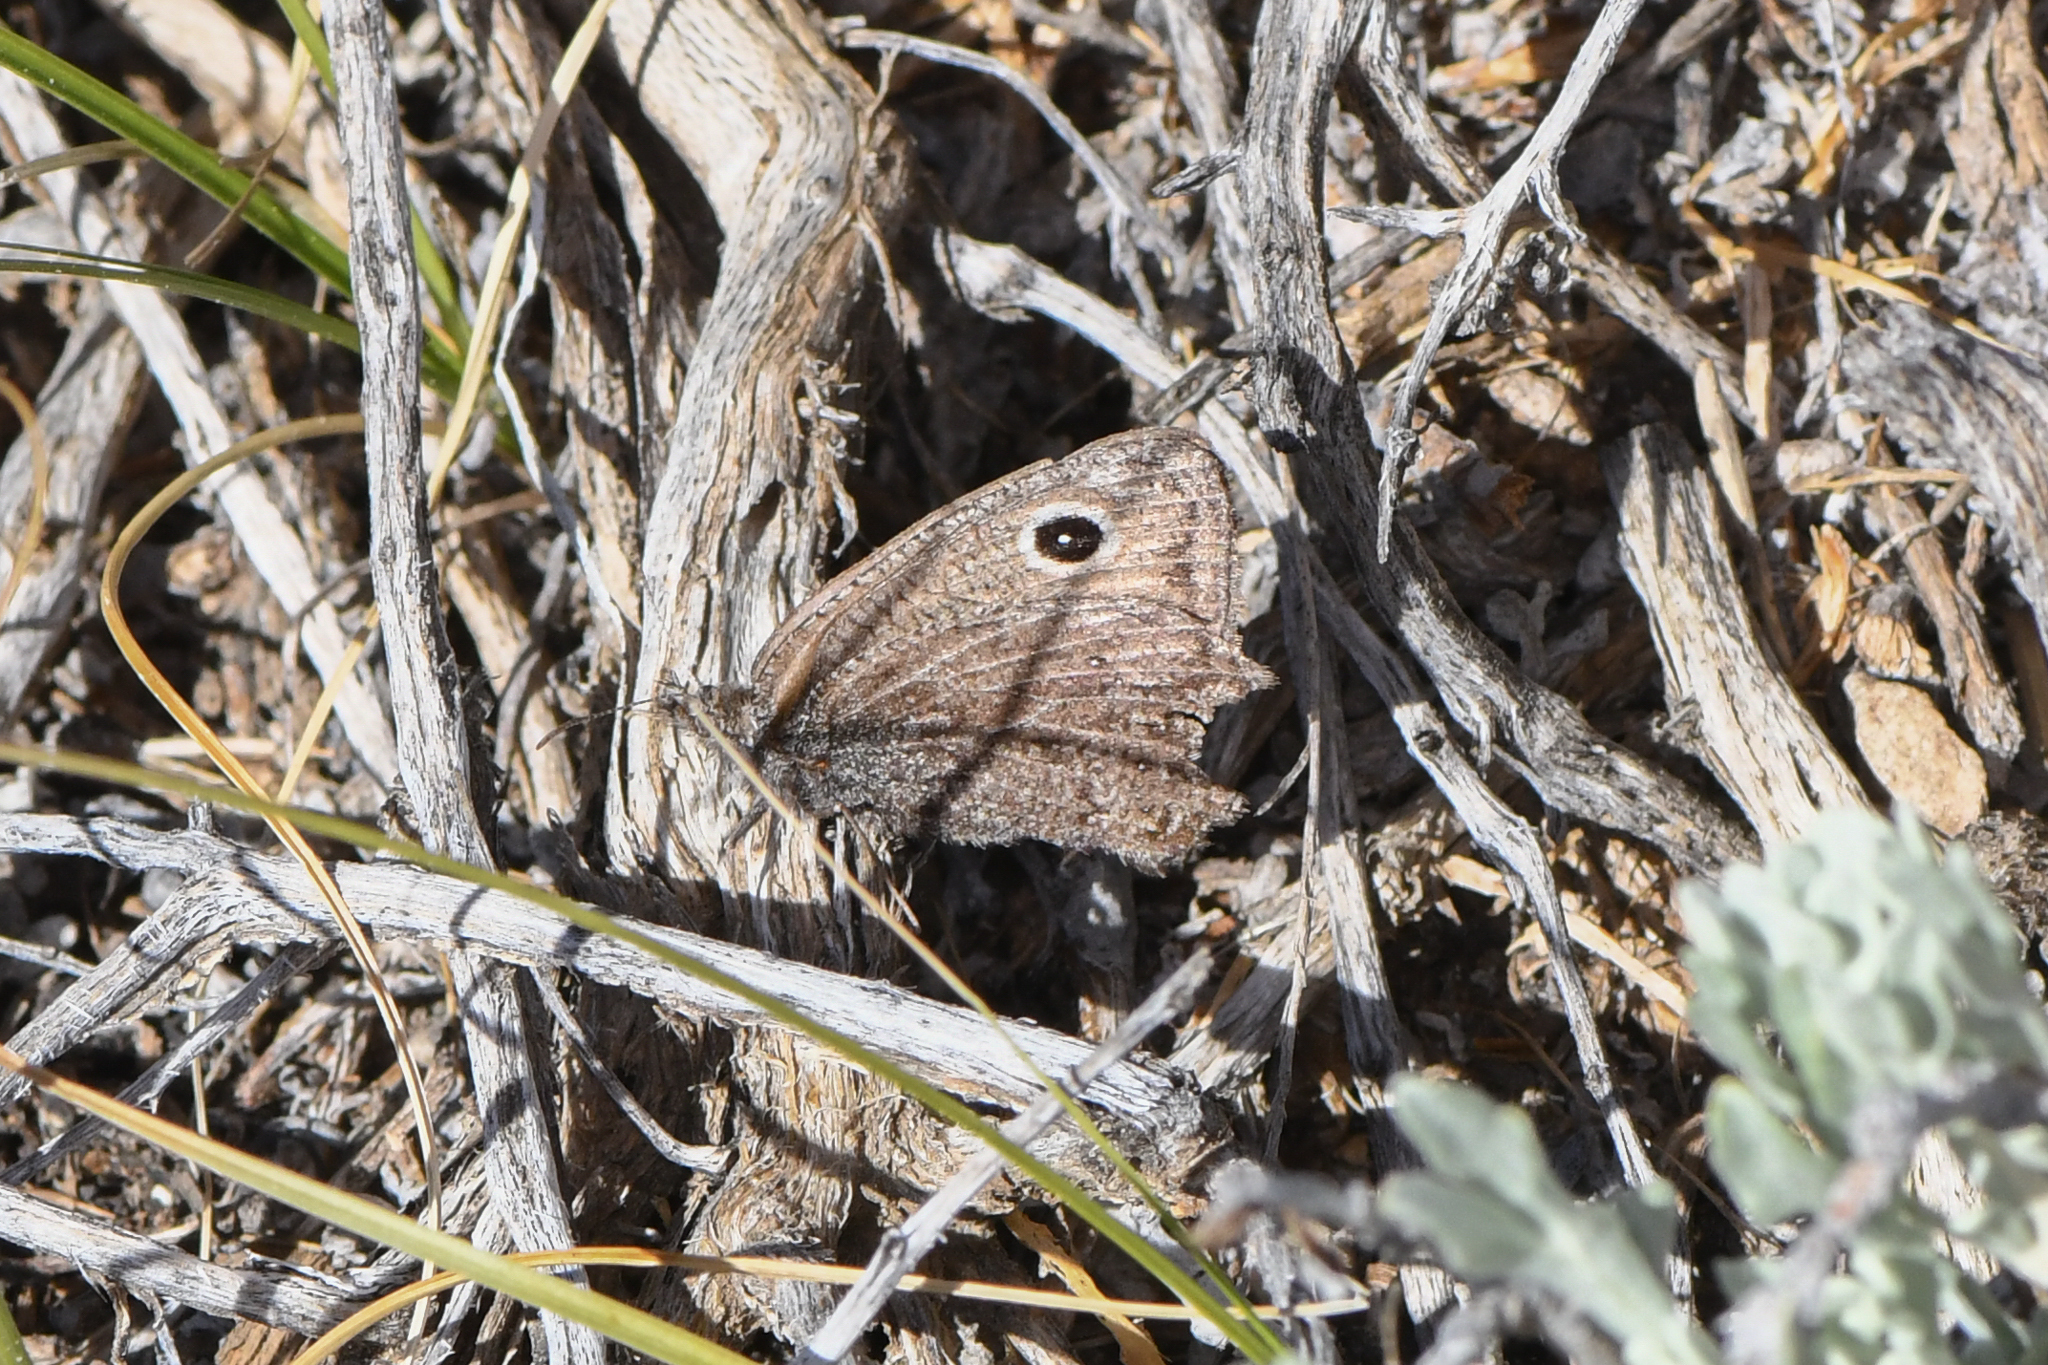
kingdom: Animalia
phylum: Arthropoda
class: Insecta
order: Lepidoptera
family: Nymphalidae
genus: Cercyonis
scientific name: Cercyonis oetus
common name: Small wood-nymph
